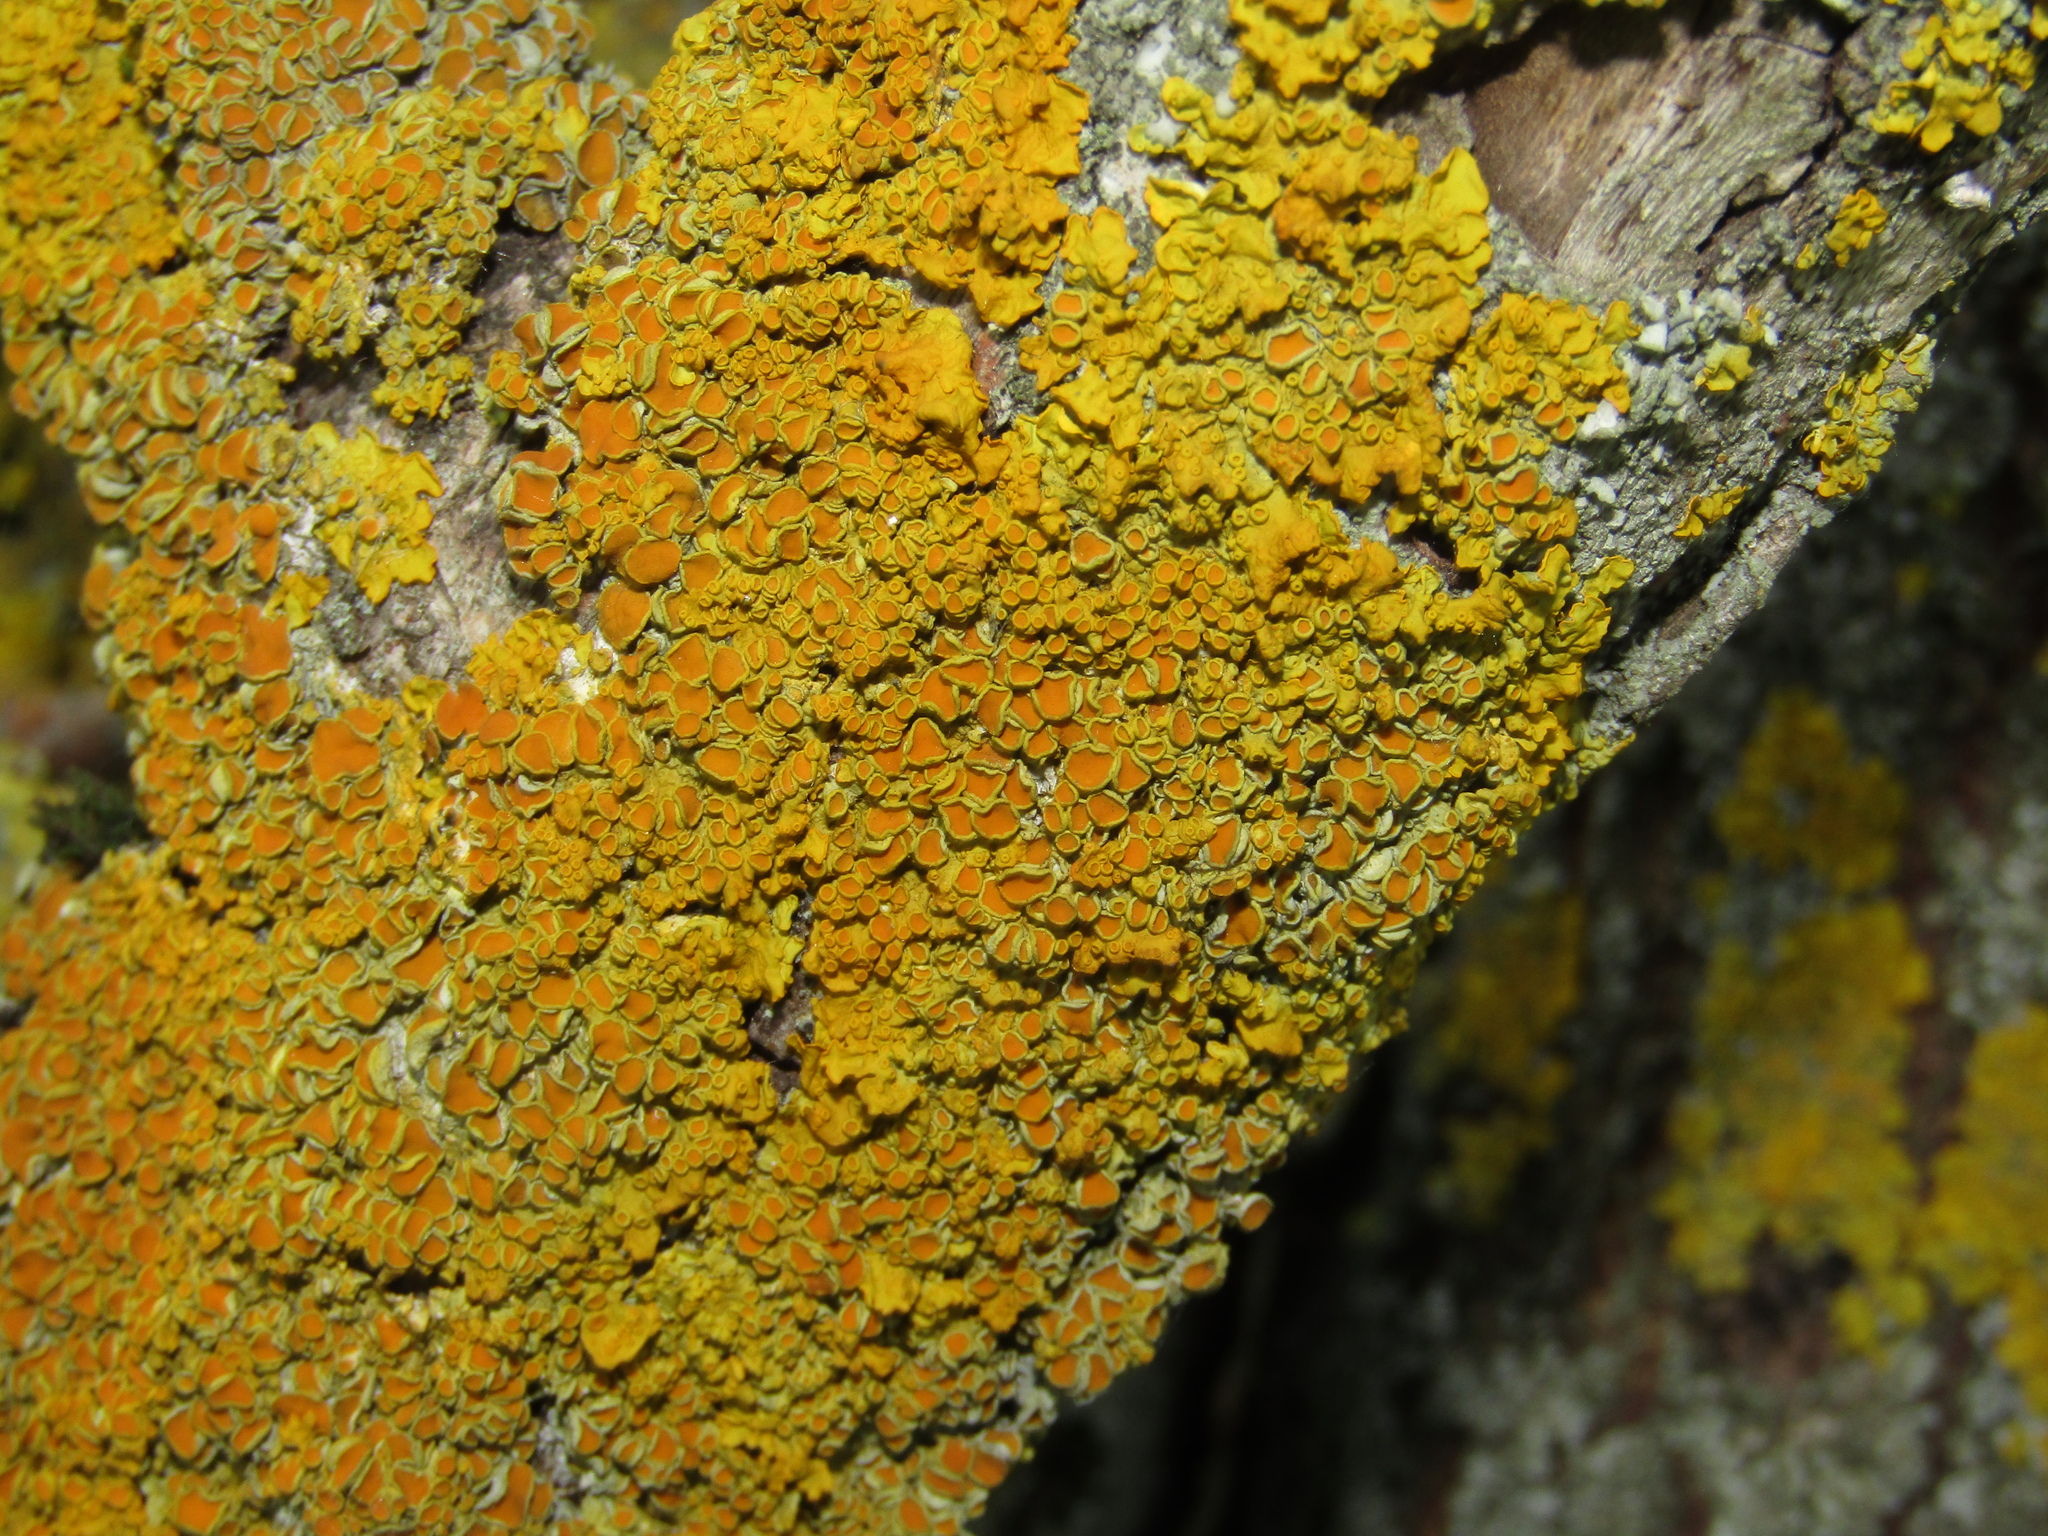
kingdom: Fungi
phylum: Ascomycota
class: Lecanoromycetes
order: Teloschistales
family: Teloschistaceae
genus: Xanthoria
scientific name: Xanthoria parietina
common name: Common orange lichen
